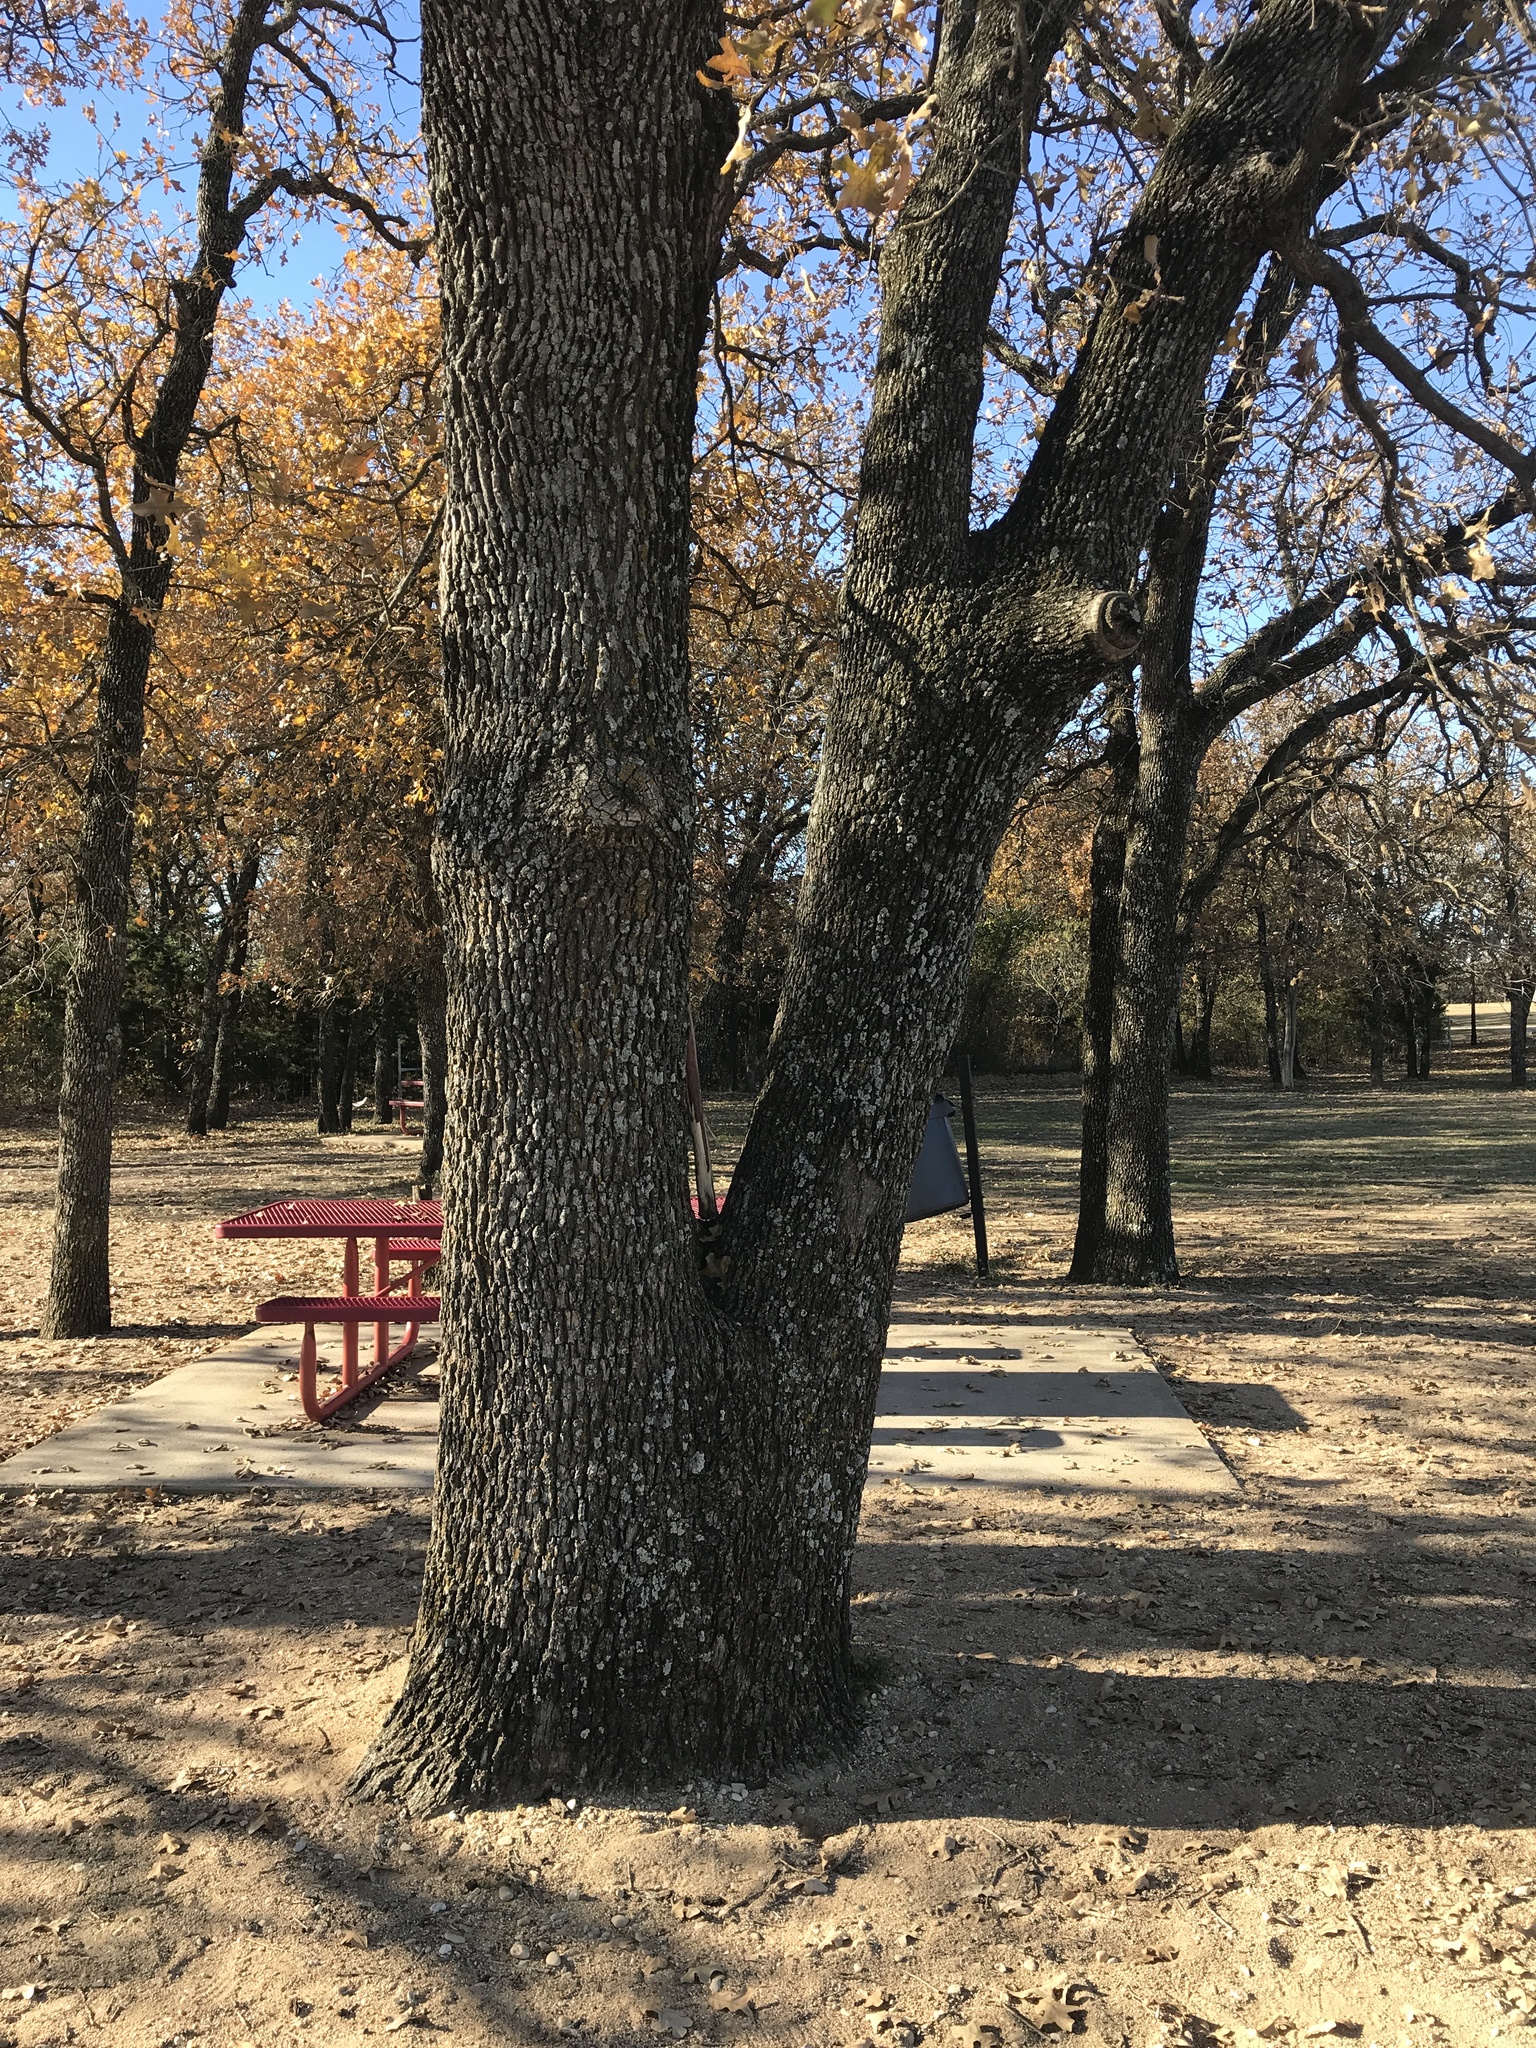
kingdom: Plantae
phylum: Tracheophyta
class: Magnoliopsida
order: Fagales
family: Fagaceae
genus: Quercus
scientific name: Quercus stellata
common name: Post oak
